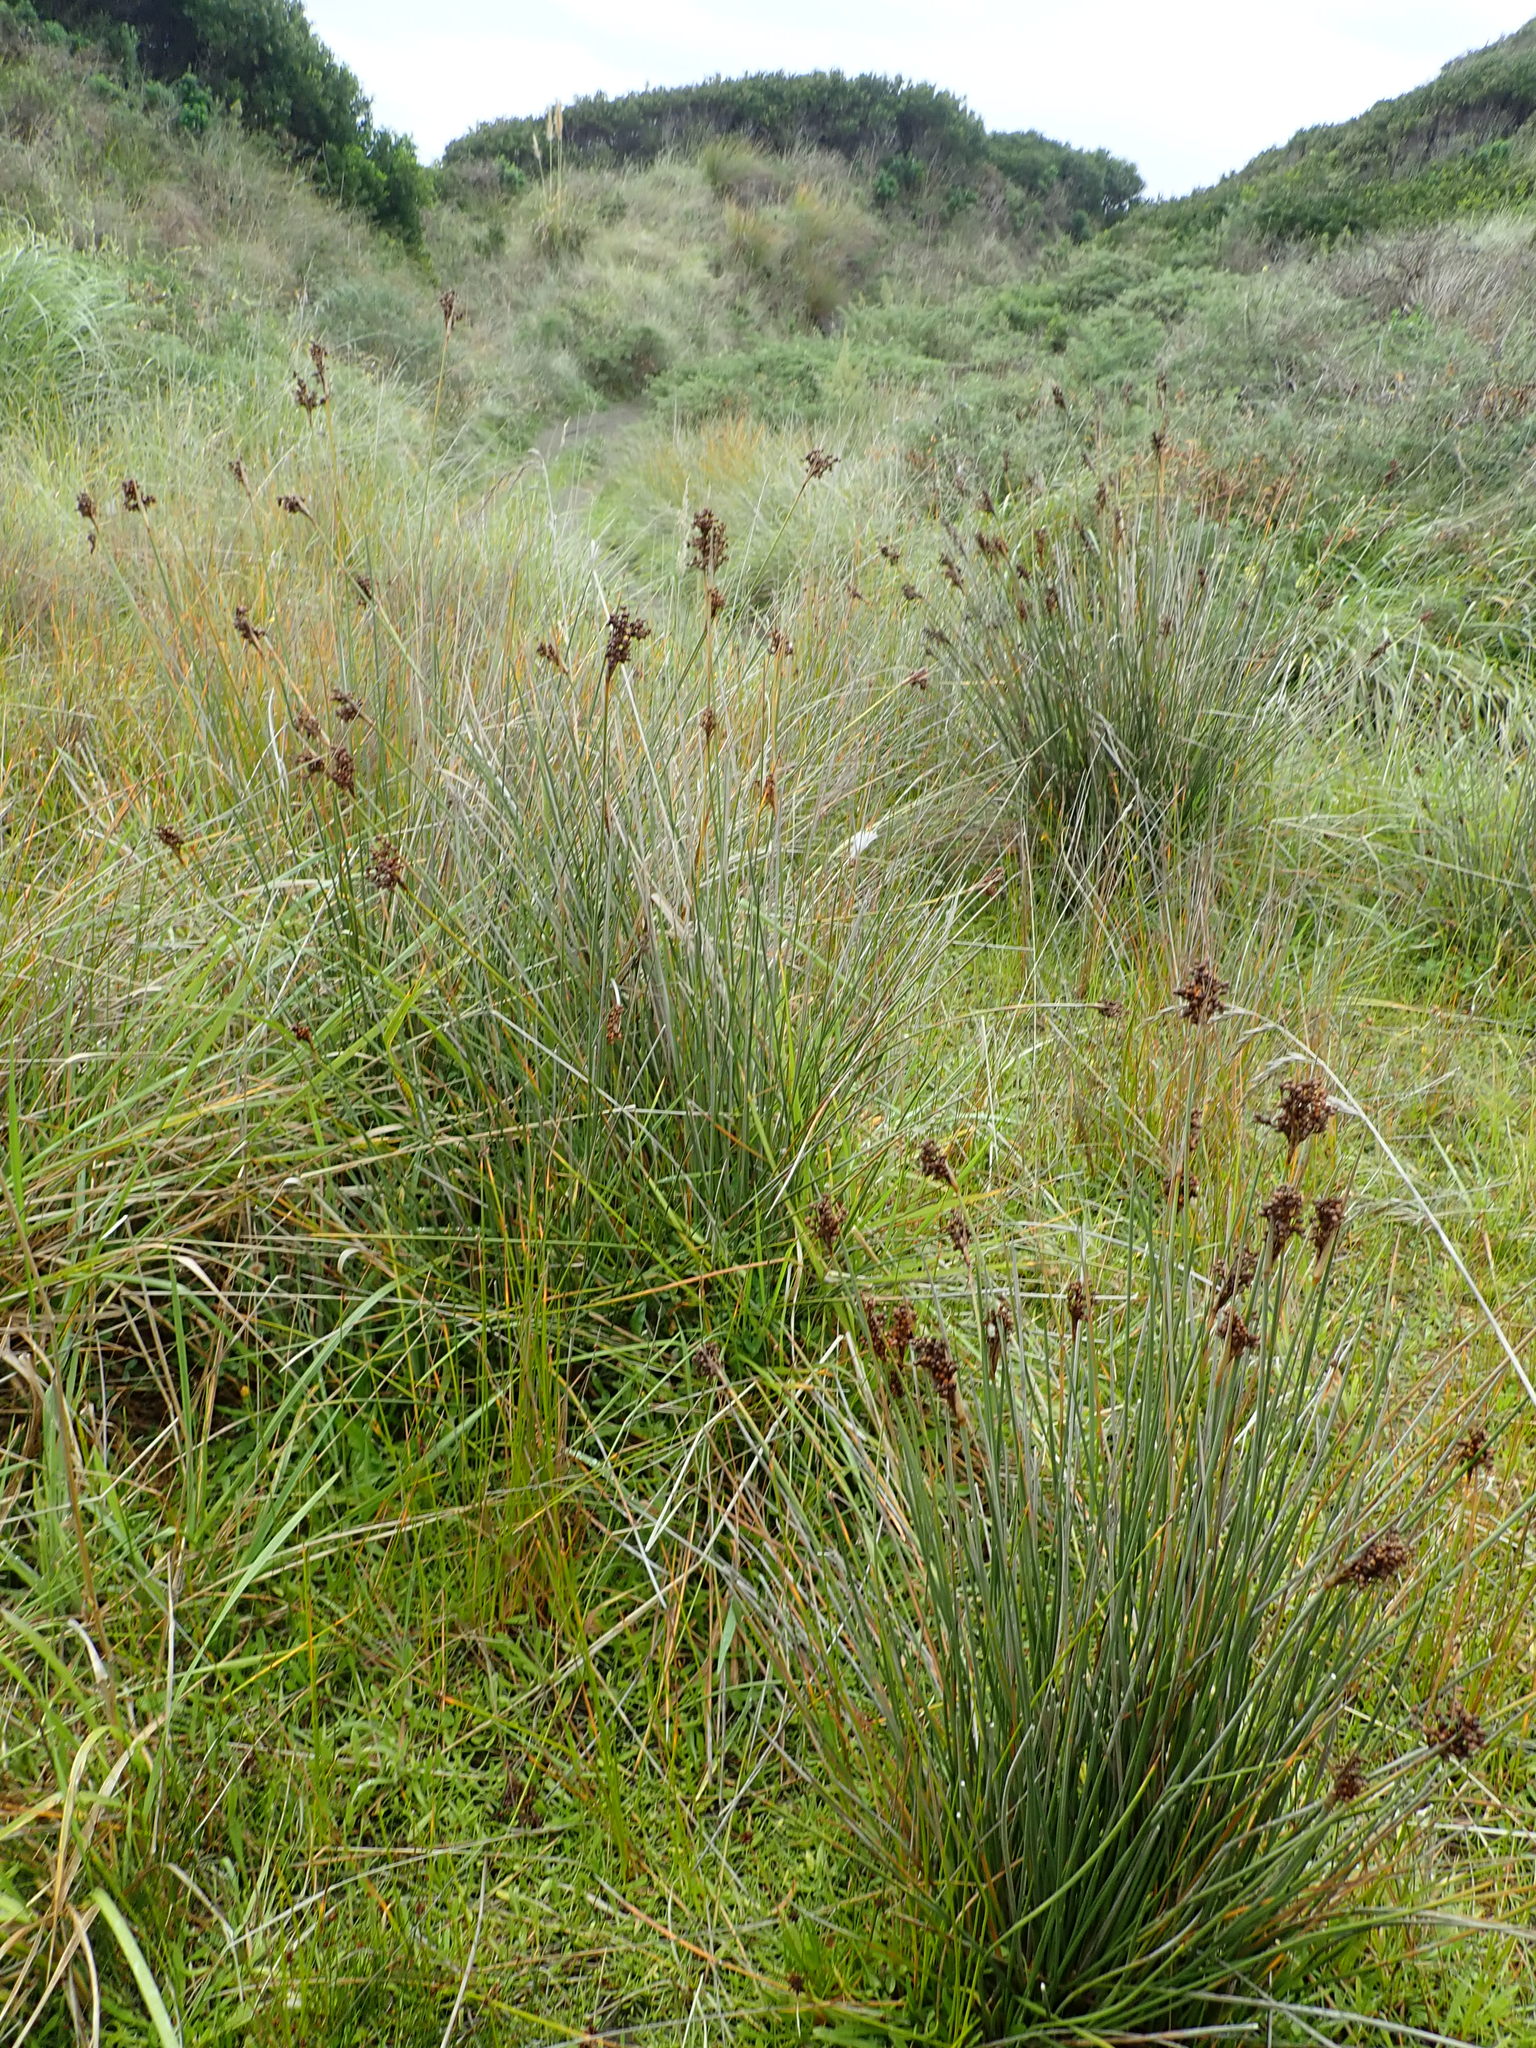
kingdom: Plantae
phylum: Tracheophyta
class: Liliopsida
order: Poales
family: Juncaceae
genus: Juncus
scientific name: Juncus acutus
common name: Sharp rush
